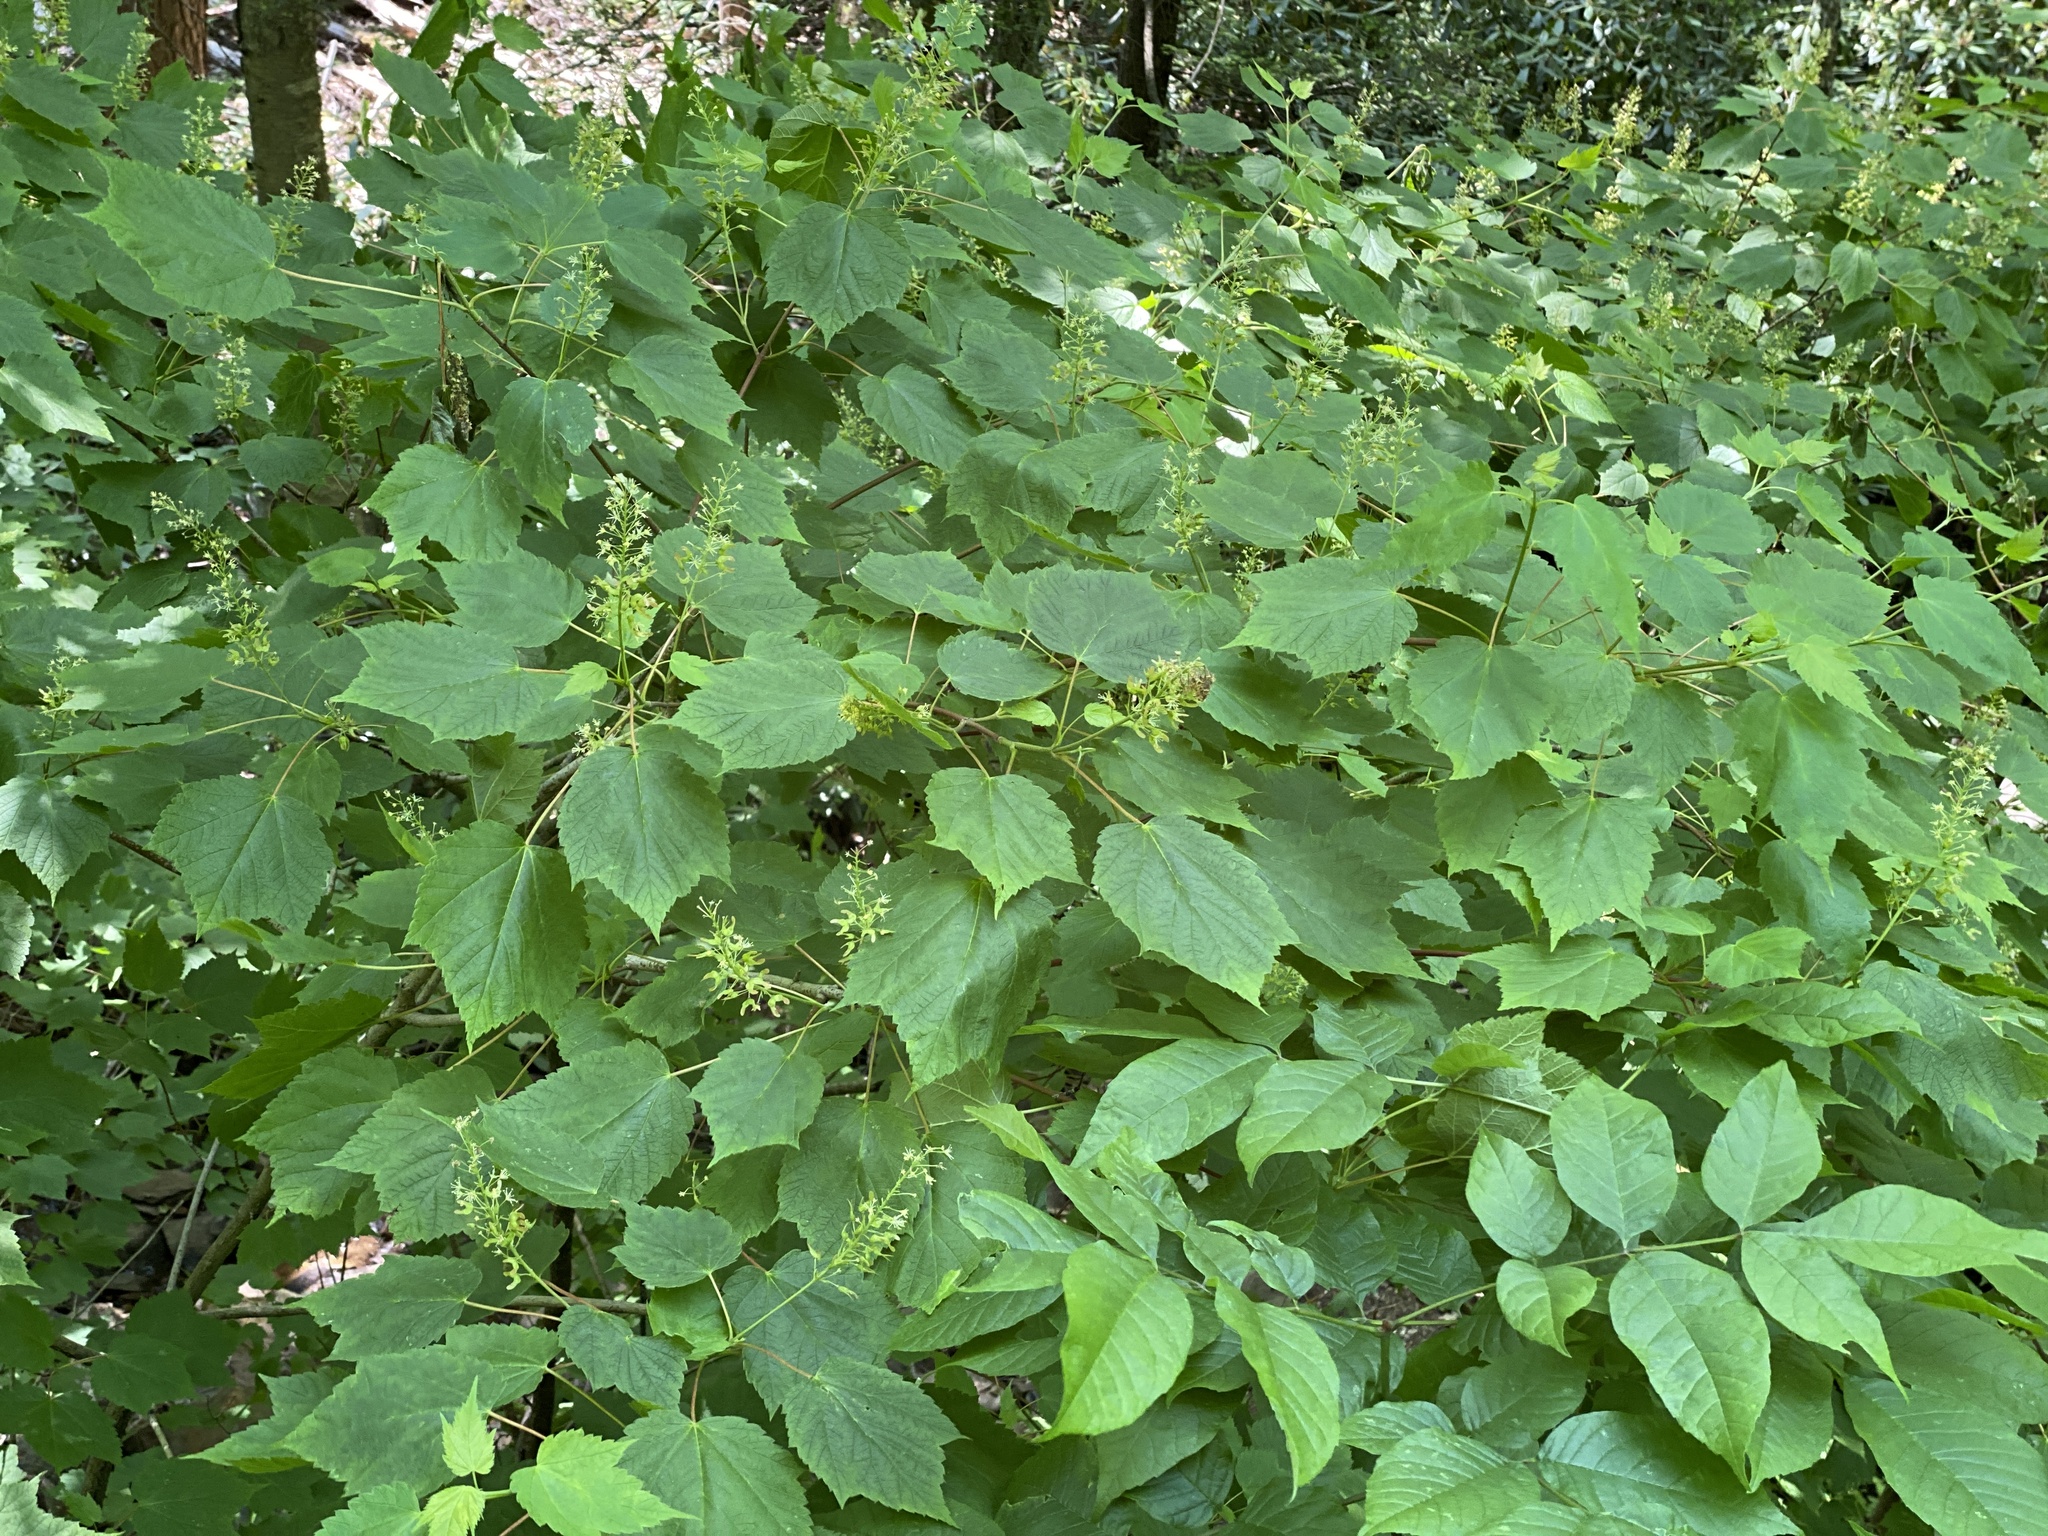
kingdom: Plantae
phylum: Tracheophyta
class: Magnoliopsida
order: Sapindales
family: Sapindaceae
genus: Acer
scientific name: Acer spicatum
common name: Mountain maple
